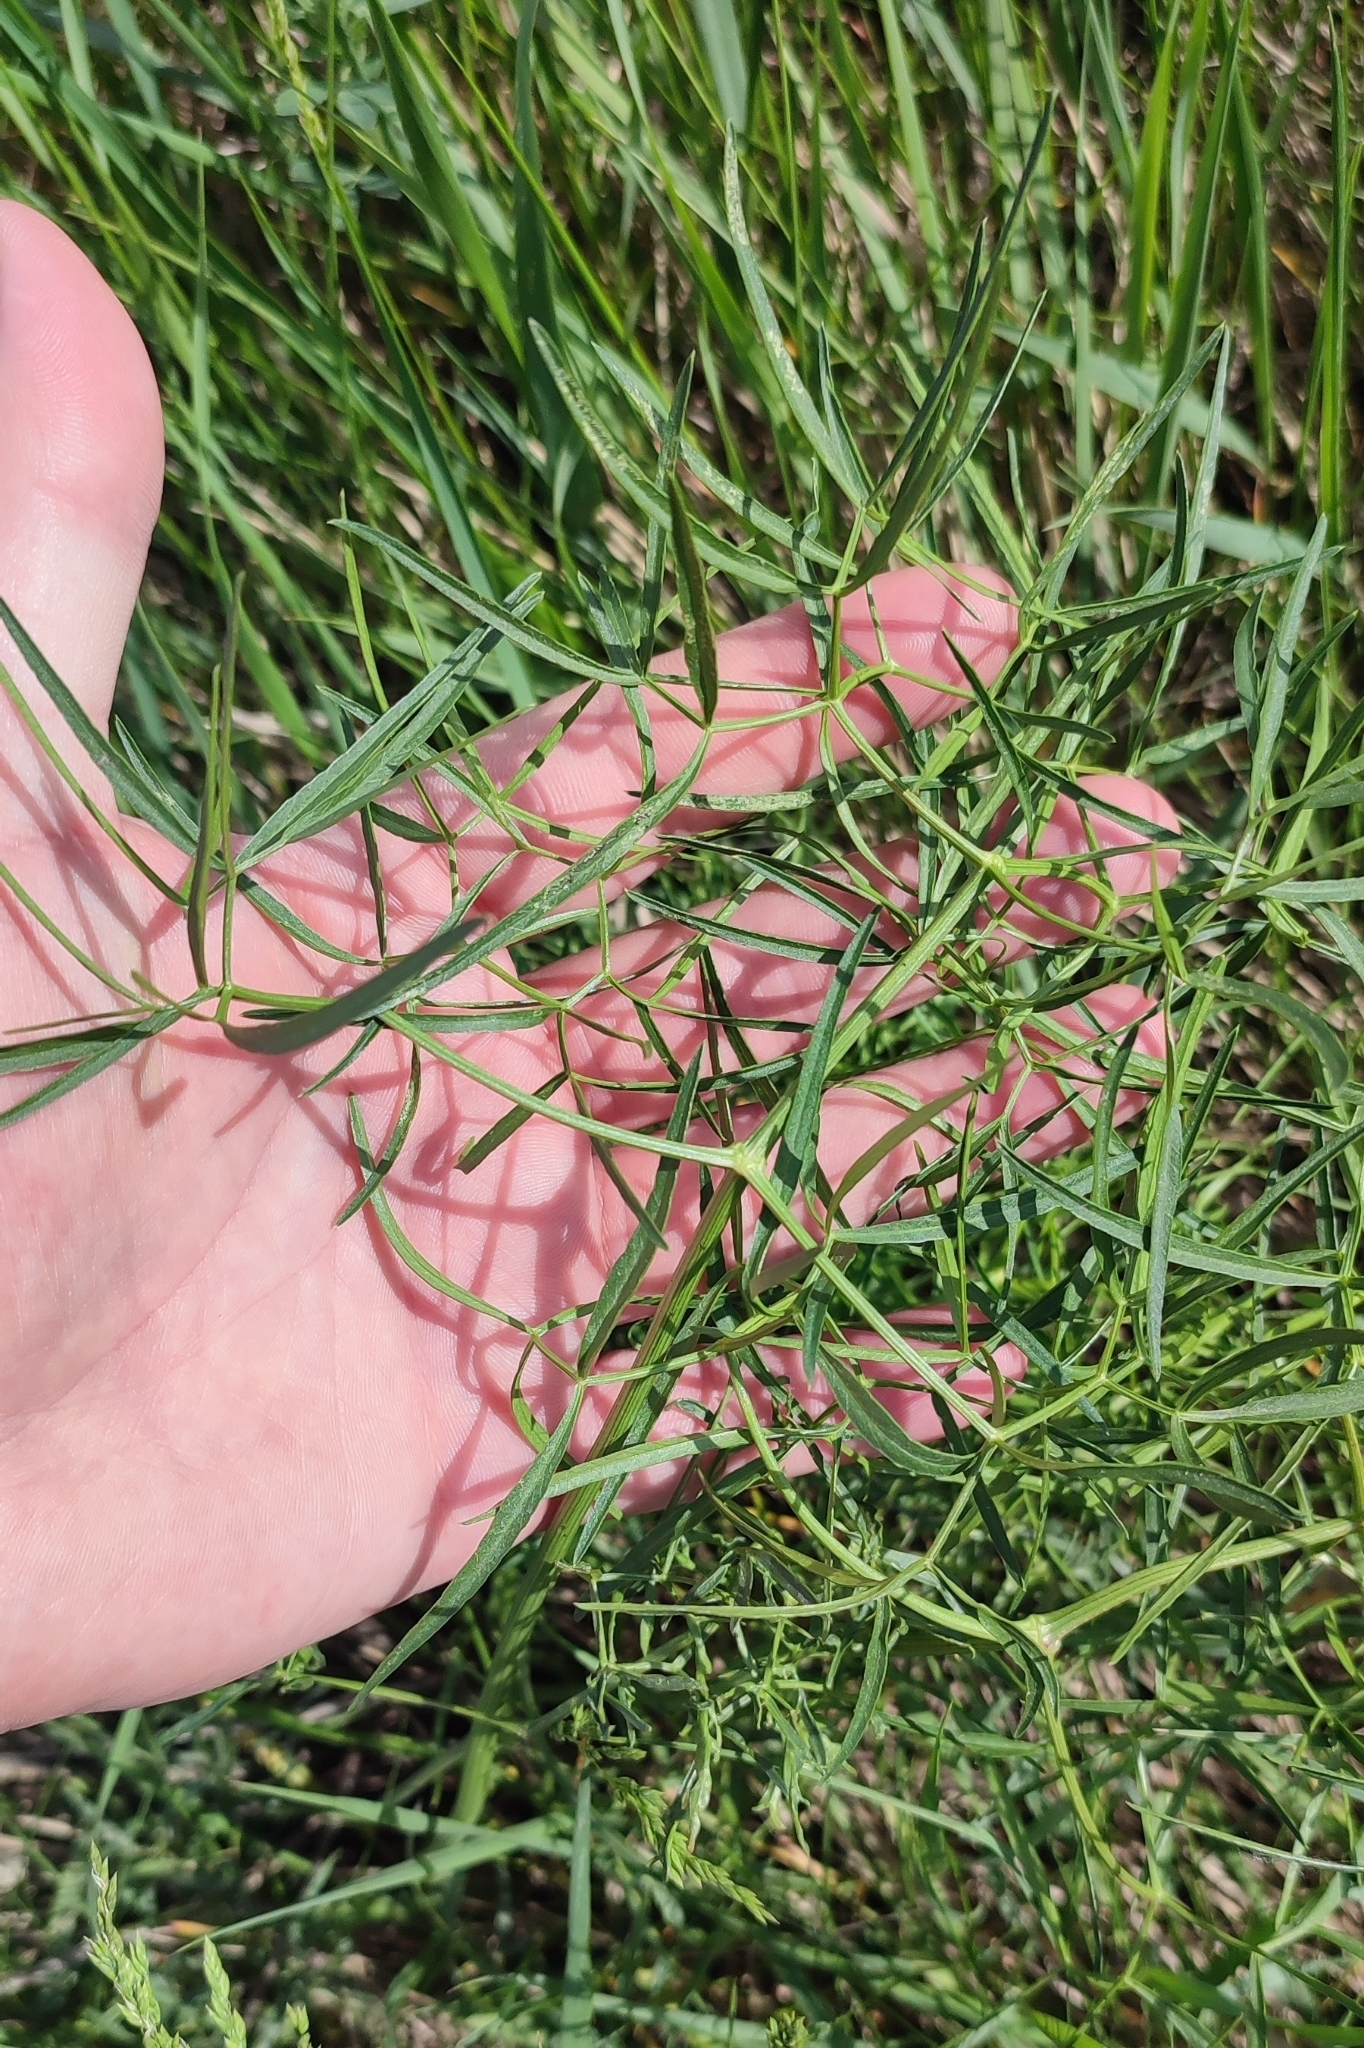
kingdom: Plantae
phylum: Tracheophyta
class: Magnoliopsida
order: Apiales
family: Apiaceae
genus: Cenolophium
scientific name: Cenolophium fischeri
